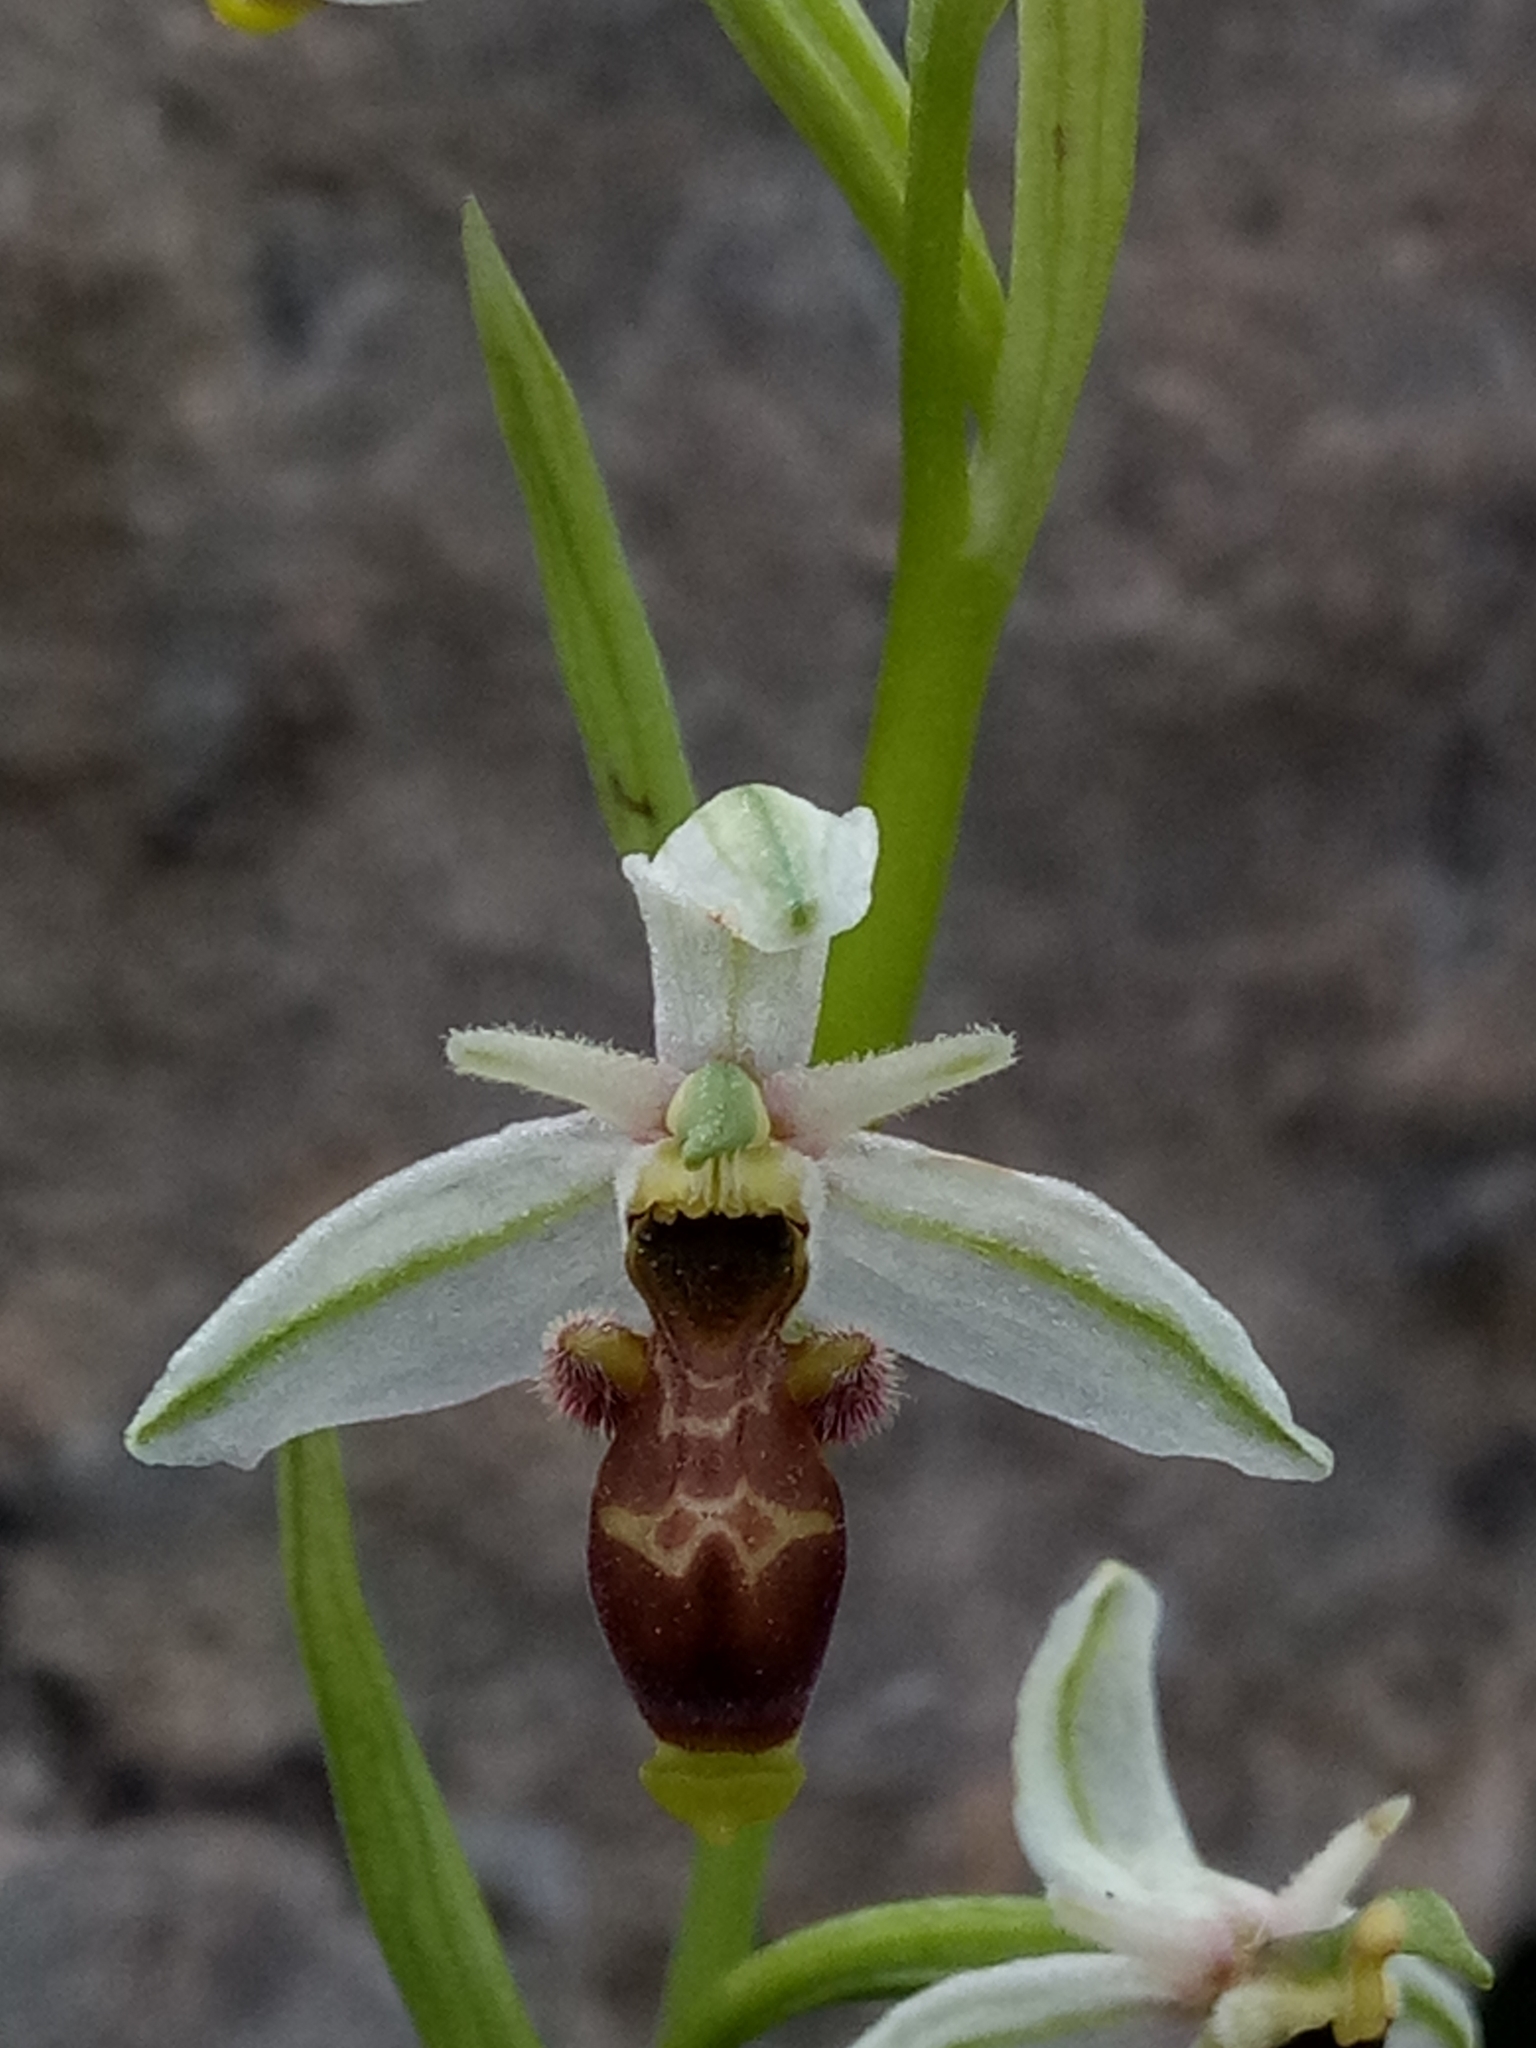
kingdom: Plantae
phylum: Tracheophyta
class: Liliopsida
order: Asparagales
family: Orchidaceae
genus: Ophrys
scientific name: Ophrys scolopax
